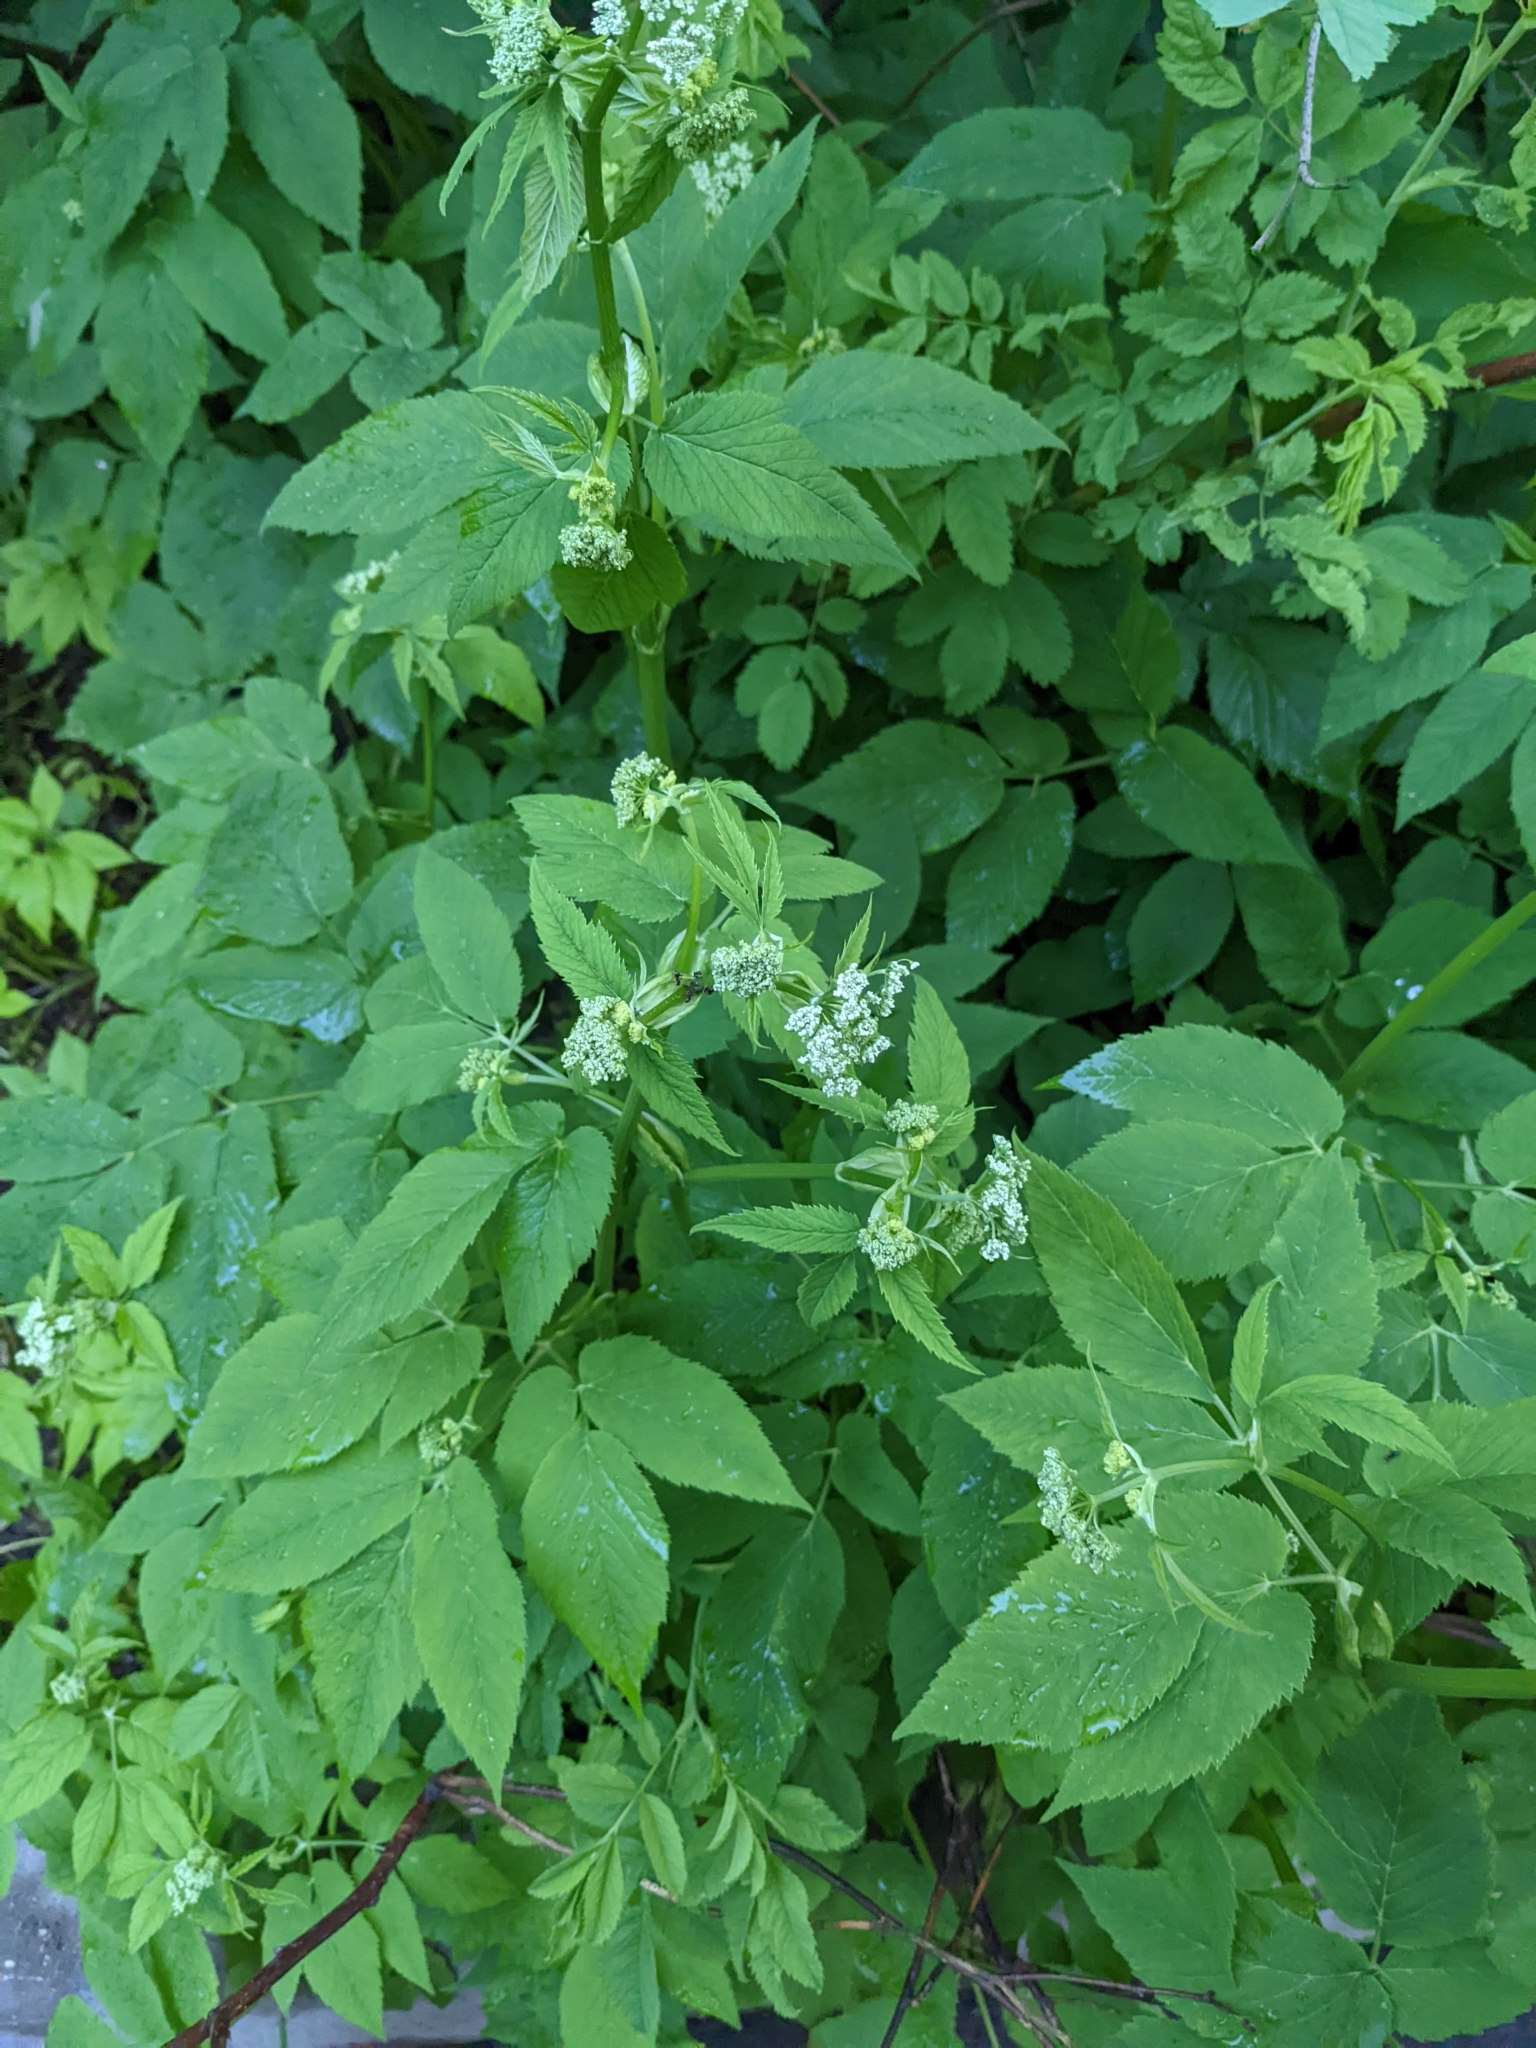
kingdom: Plantae
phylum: Tracheophyta
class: Magnoliopsida
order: Apiales
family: Apiaceae
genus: Aegopodium
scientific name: Aegopodium podagraria
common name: Ground-elder
